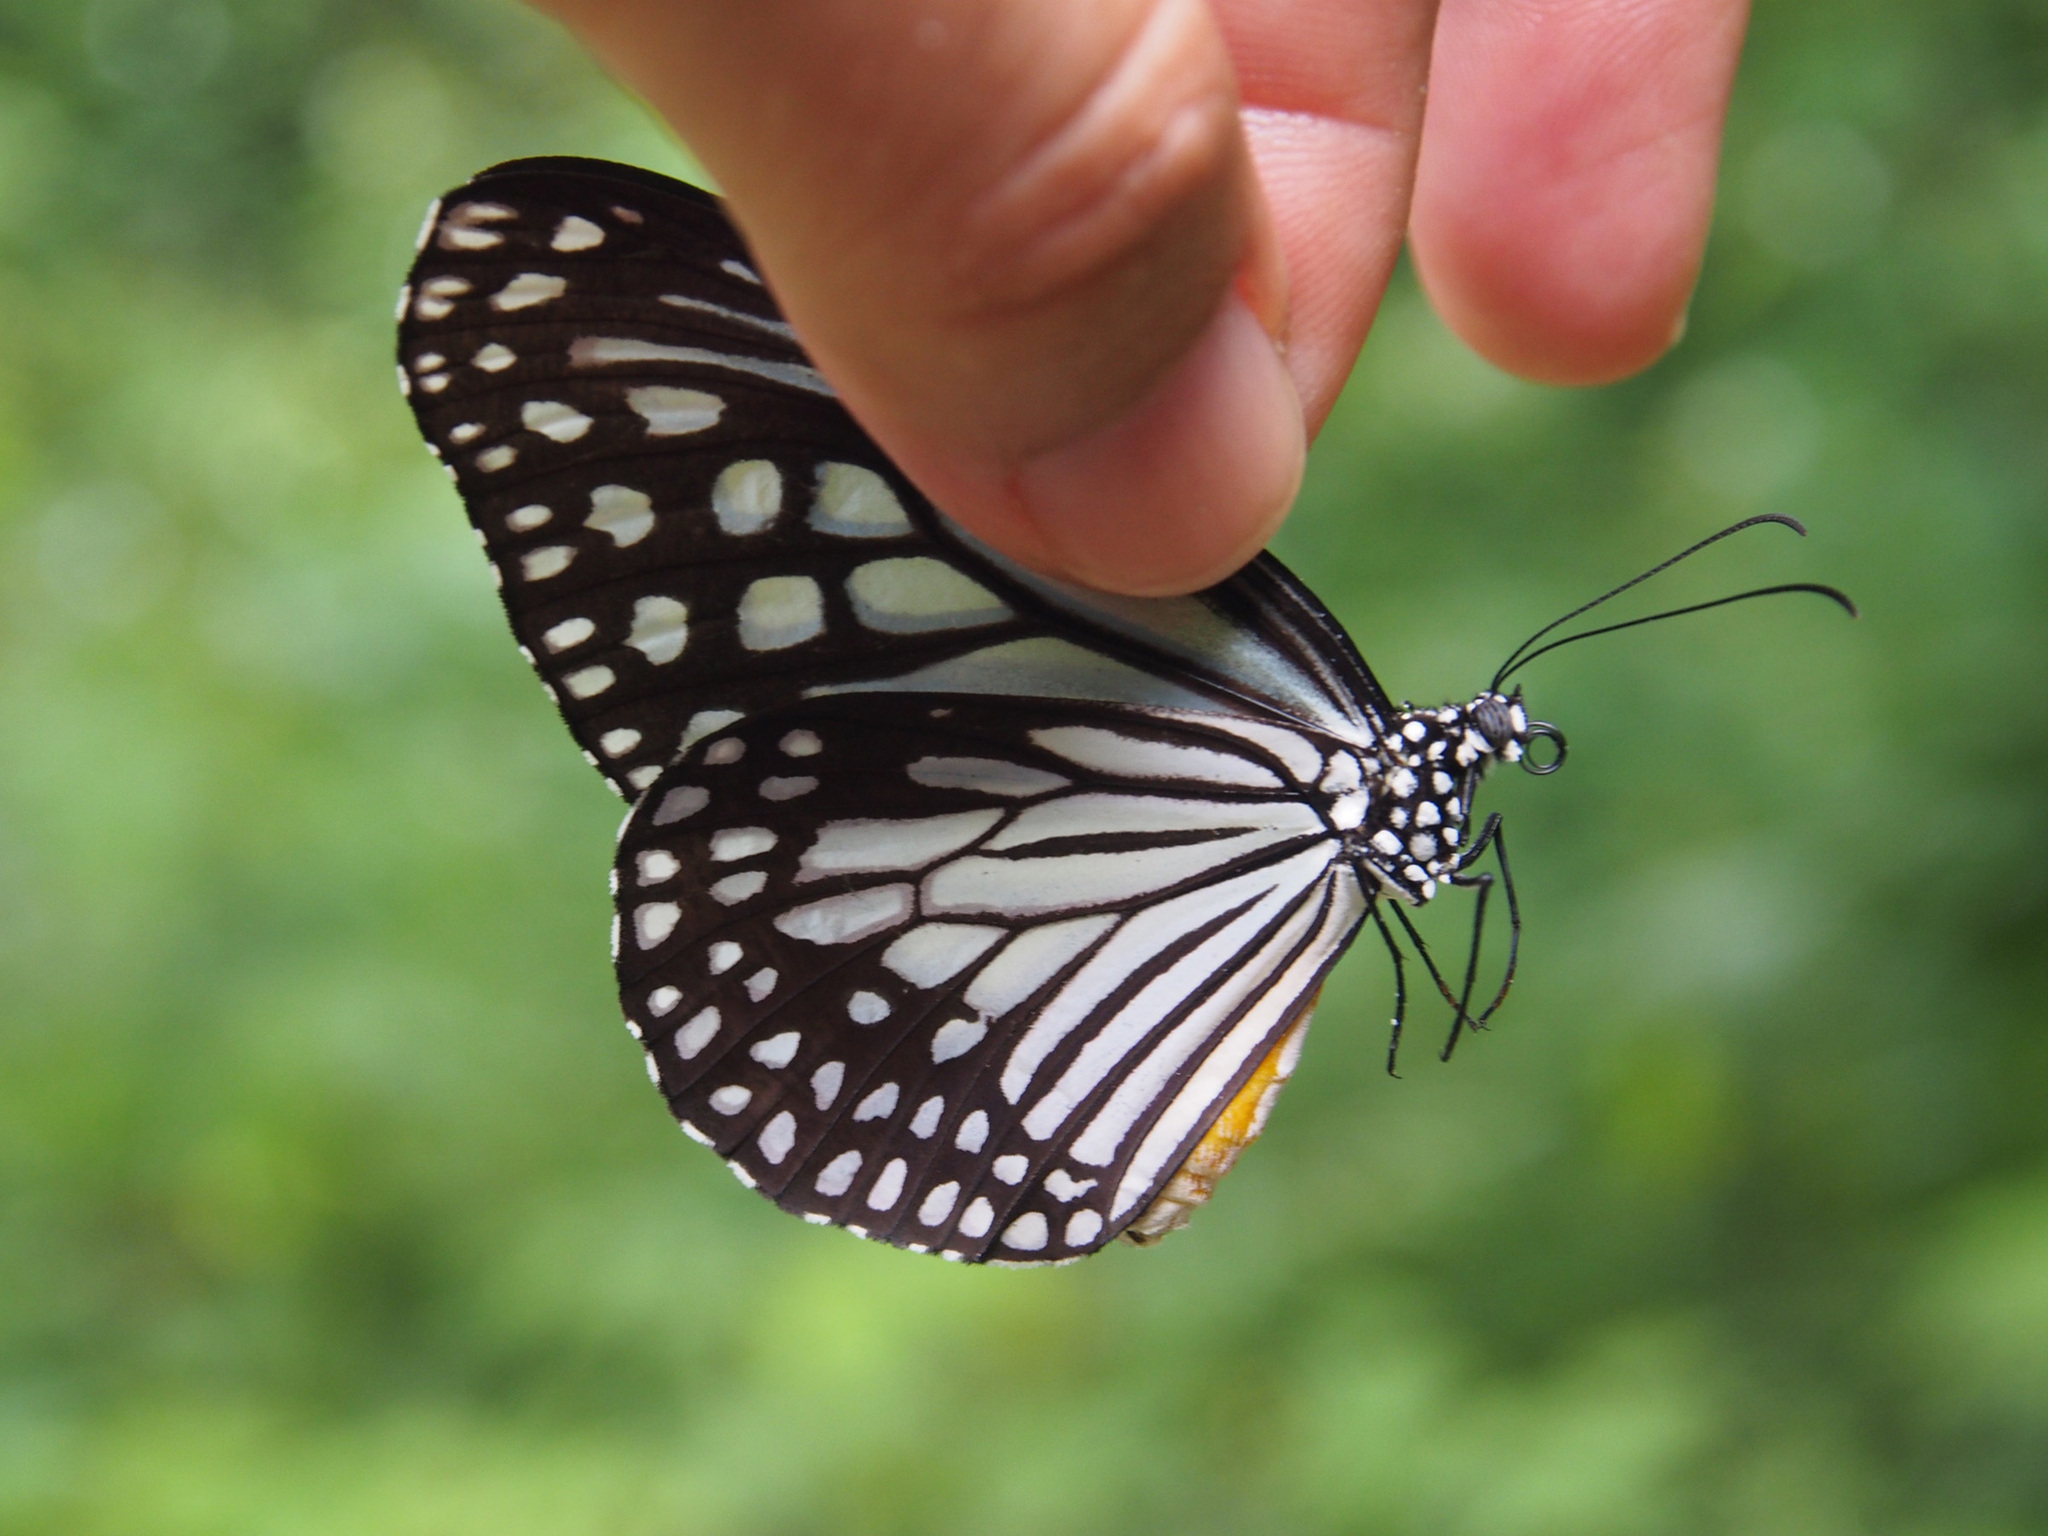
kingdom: Animalia
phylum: Arthropoda
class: Insecta
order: Lepidoptera
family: Nymphalidae
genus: Parantica
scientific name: Parantica aglea
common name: Glassy tiger
